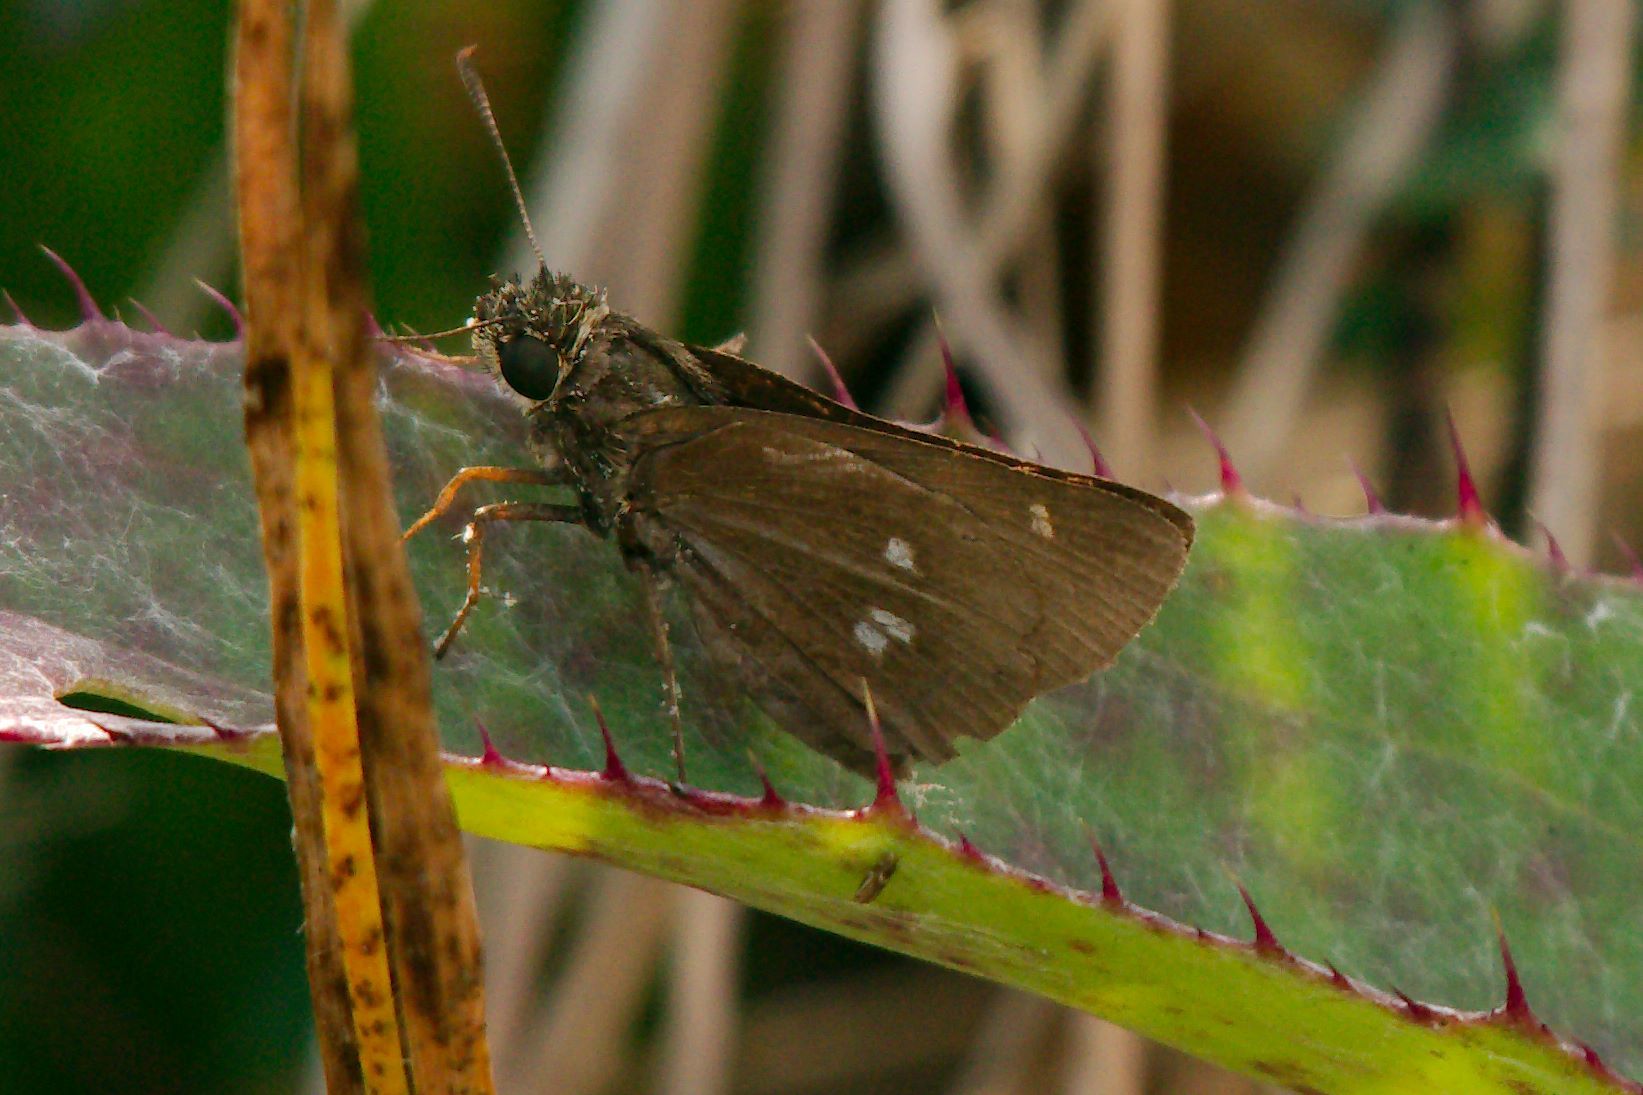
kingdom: Animalia
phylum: Arthropoda
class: Insecta
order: Lepidoptera
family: Hesperiidae
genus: Oligoria
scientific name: Oligoria maculata
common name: Twin-spot skipper
